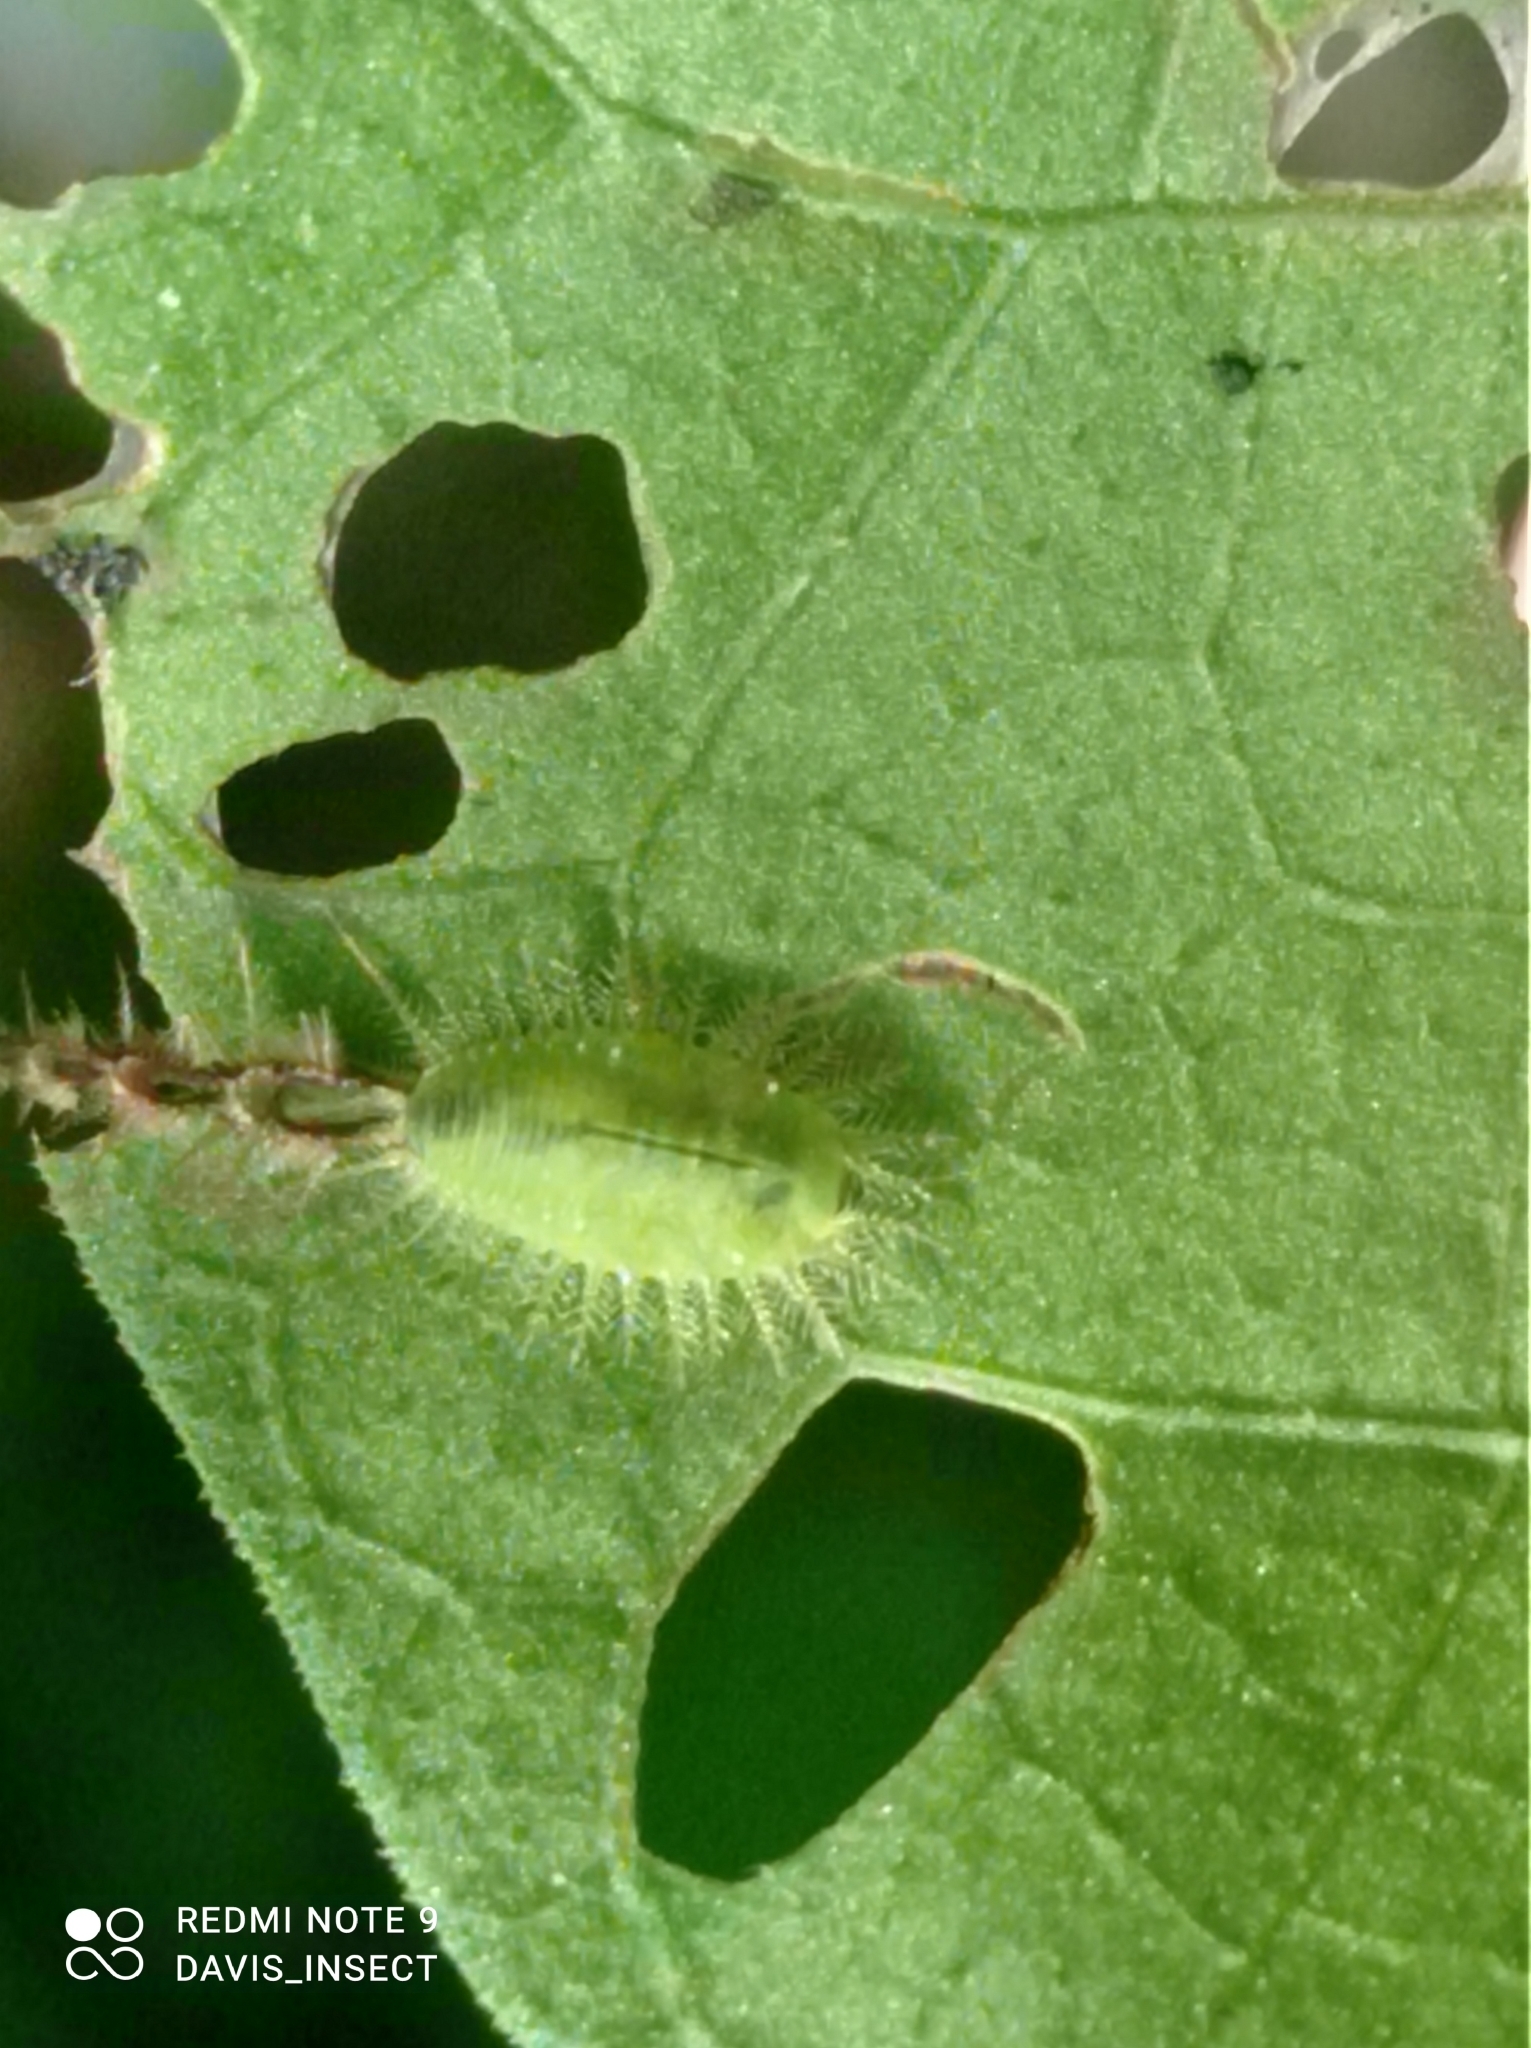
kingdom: Animalia
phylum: Arthropoda
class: Insecta
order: Coleoptera
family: Chrysomelidae
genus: Cassida
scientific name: Cassida timorensis
